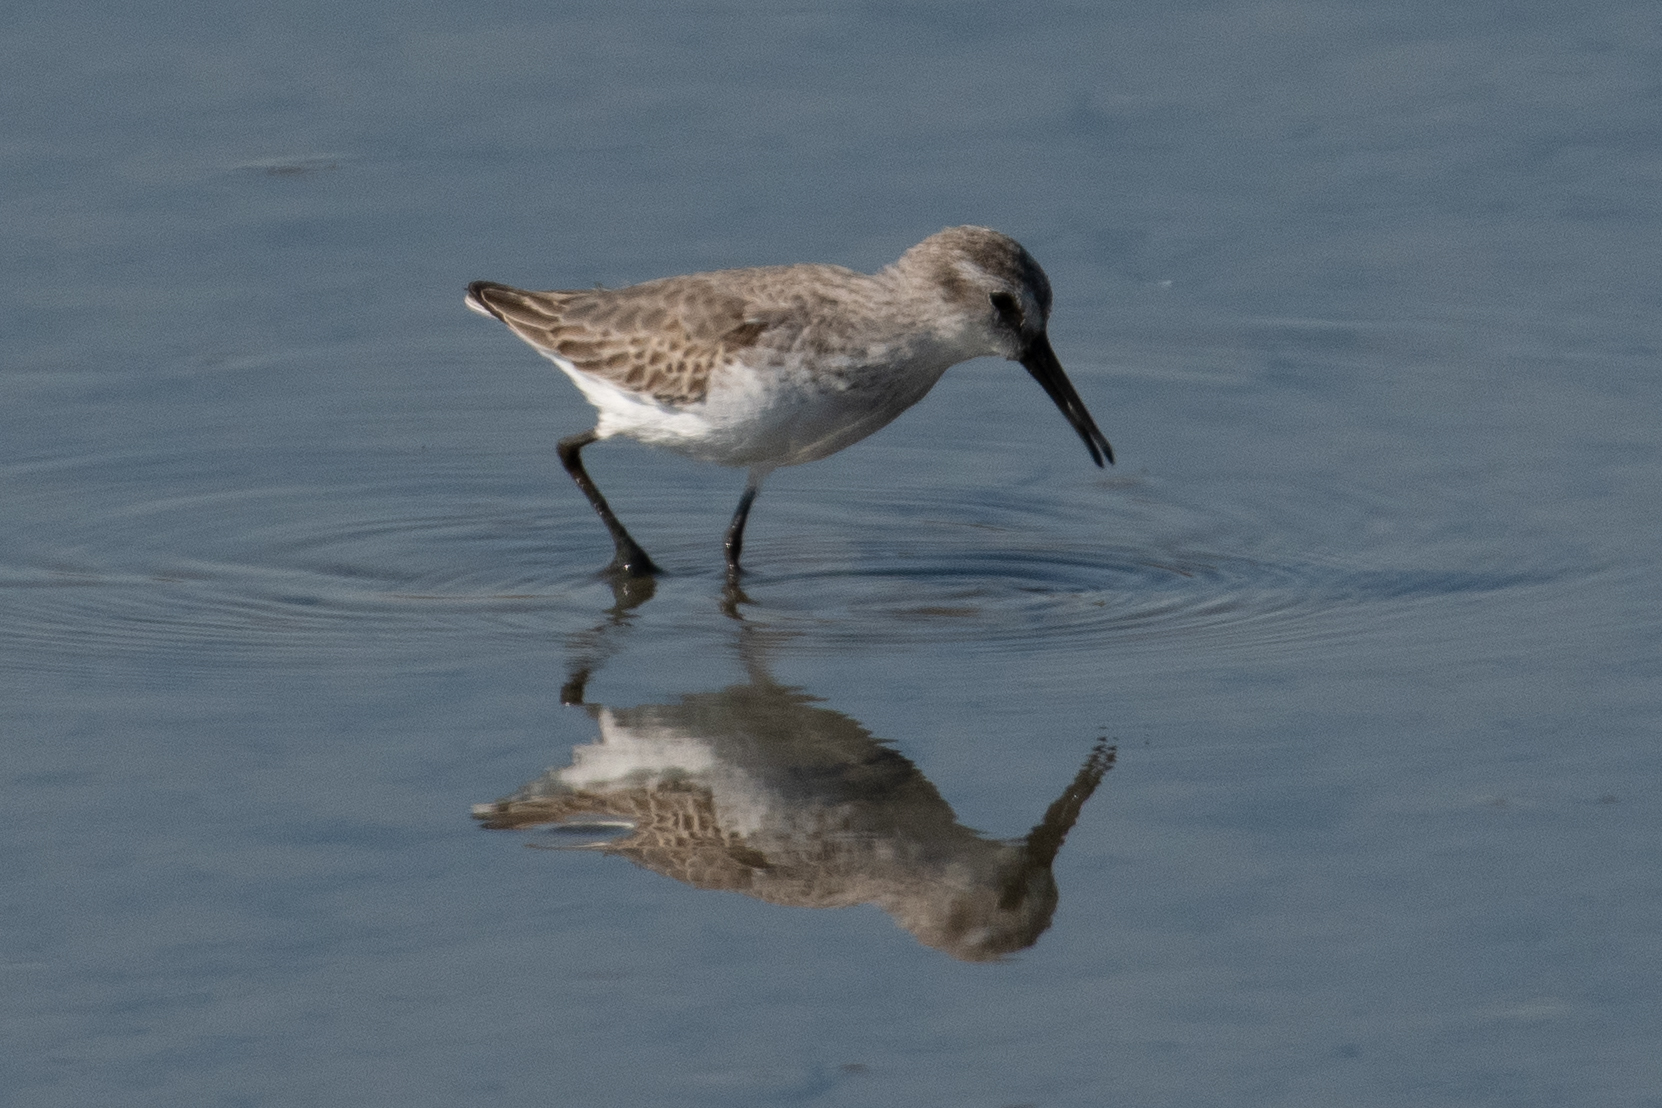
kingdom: Animalia
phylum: Chordata
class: Aves
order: Charadriiformes
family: Scolopacidae
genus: Calidris
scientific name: Calidris mauri
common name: Western sandpiper
